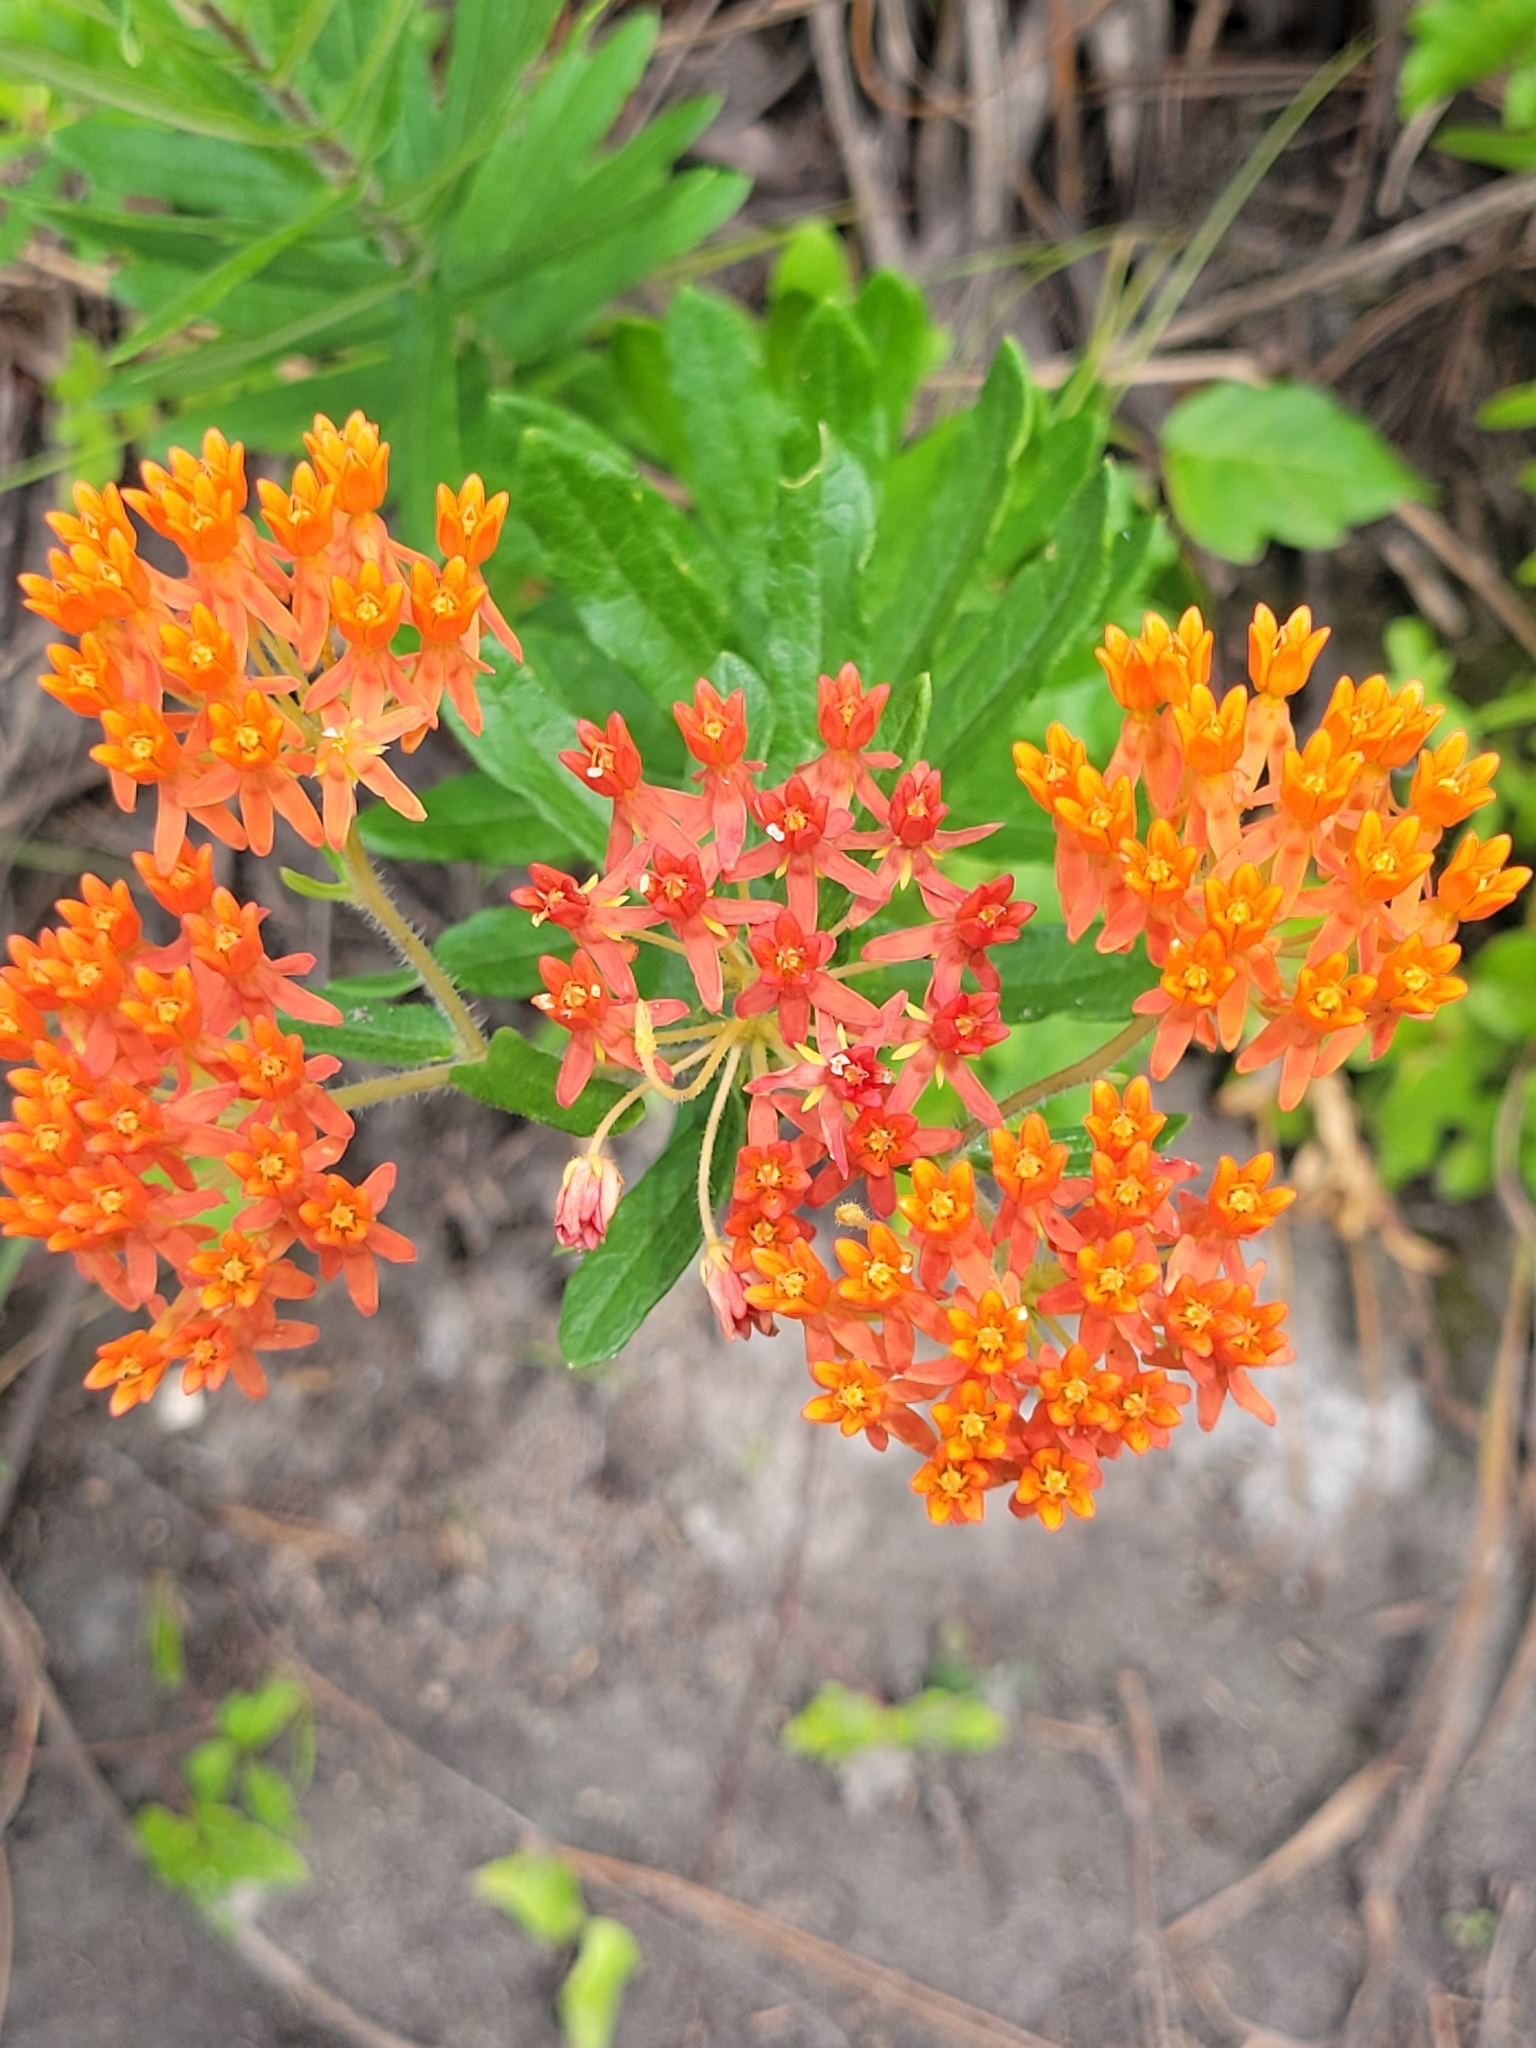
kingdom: Plantae
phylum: Tracheophyta
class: Magnoliopsida
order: Gentianales
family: Apocynaceae
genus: Asclepias
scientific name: Asclepias tuberosa
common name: Butterfly milkweed
